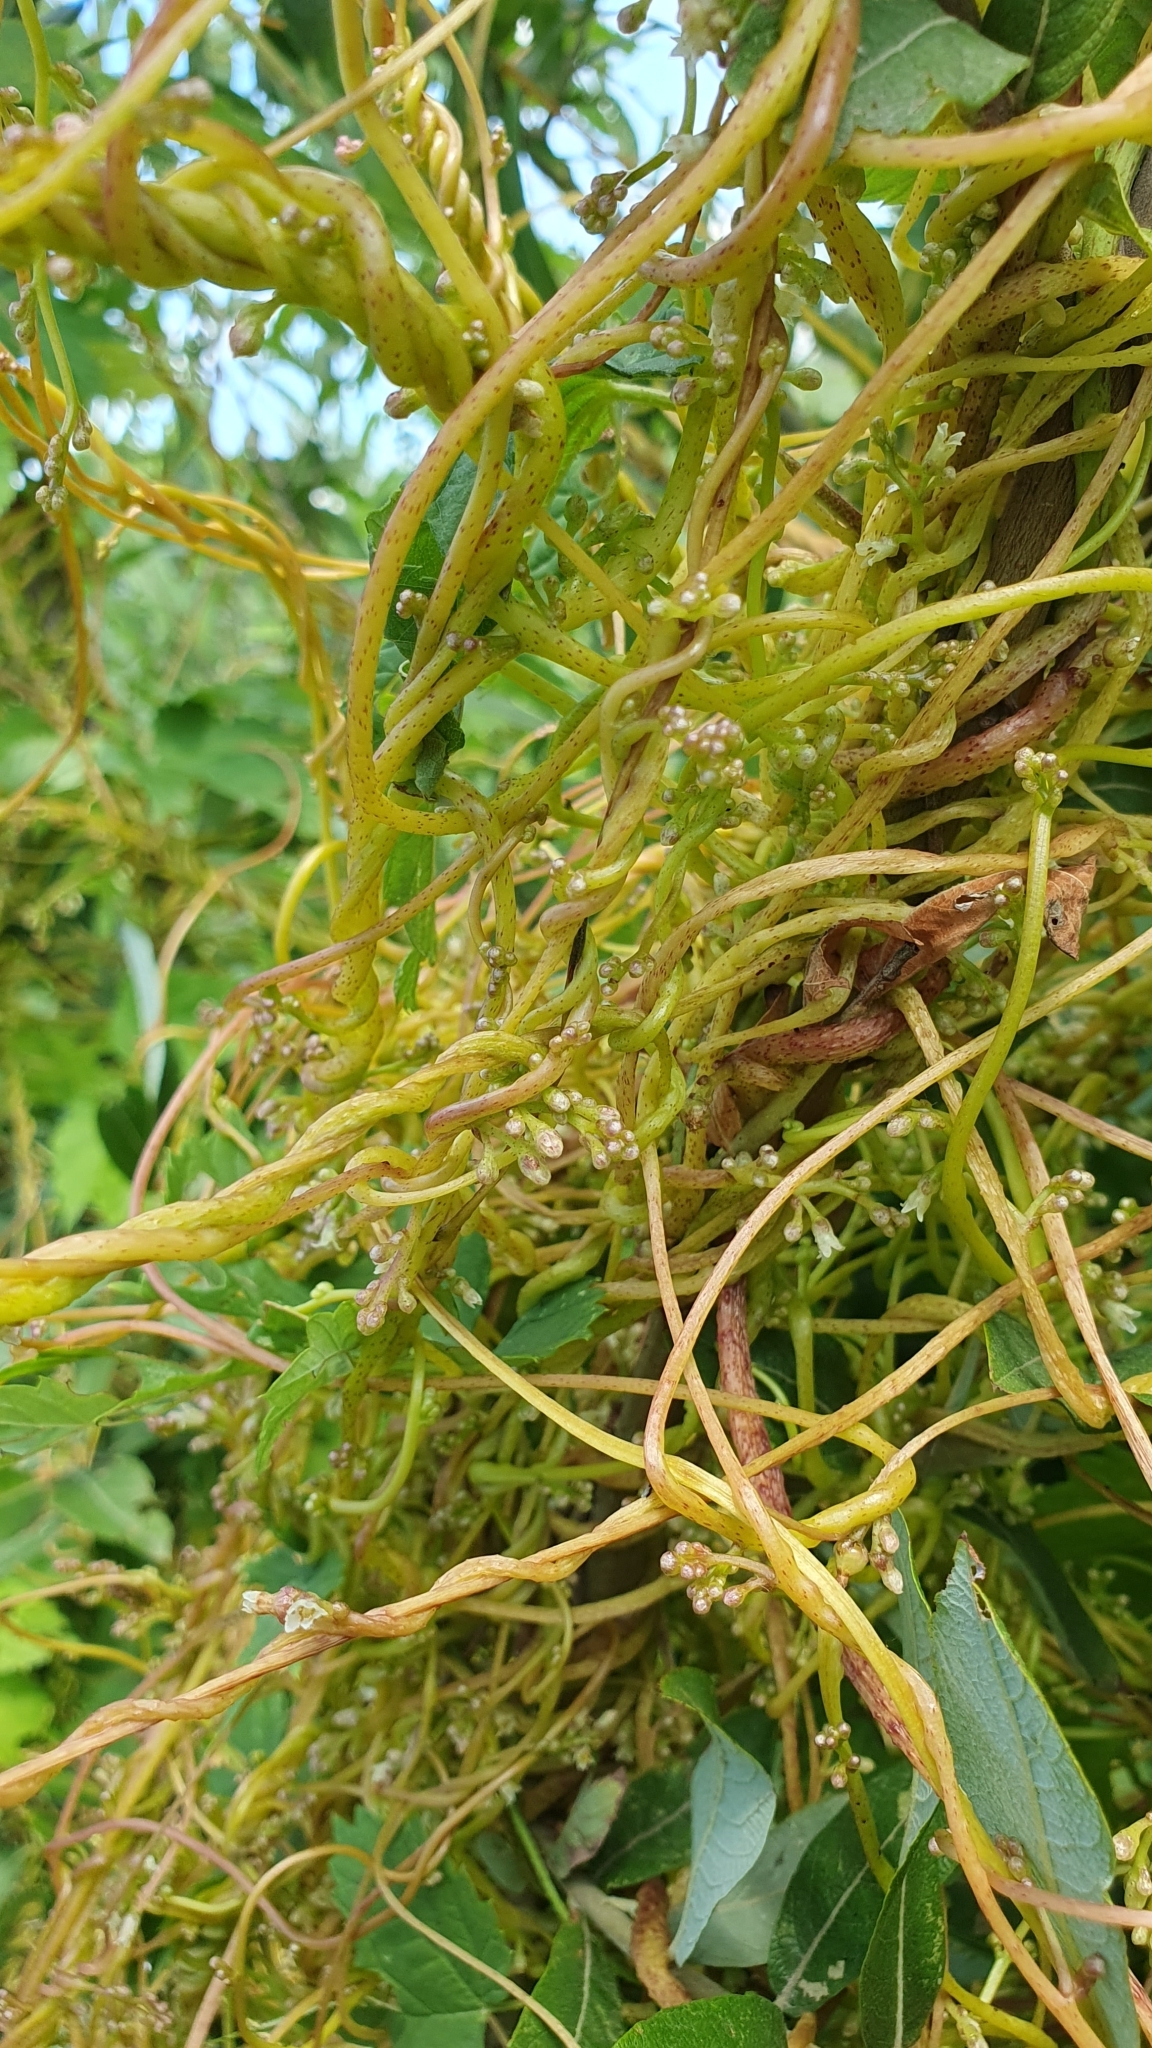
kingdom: Plantae
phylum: Tracheophyta
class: Magnoliopsida
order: Solanales
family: Convolvulaceae
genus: Cuscuta
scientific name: Cuscuta lupuliformis
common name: Hop dodder
